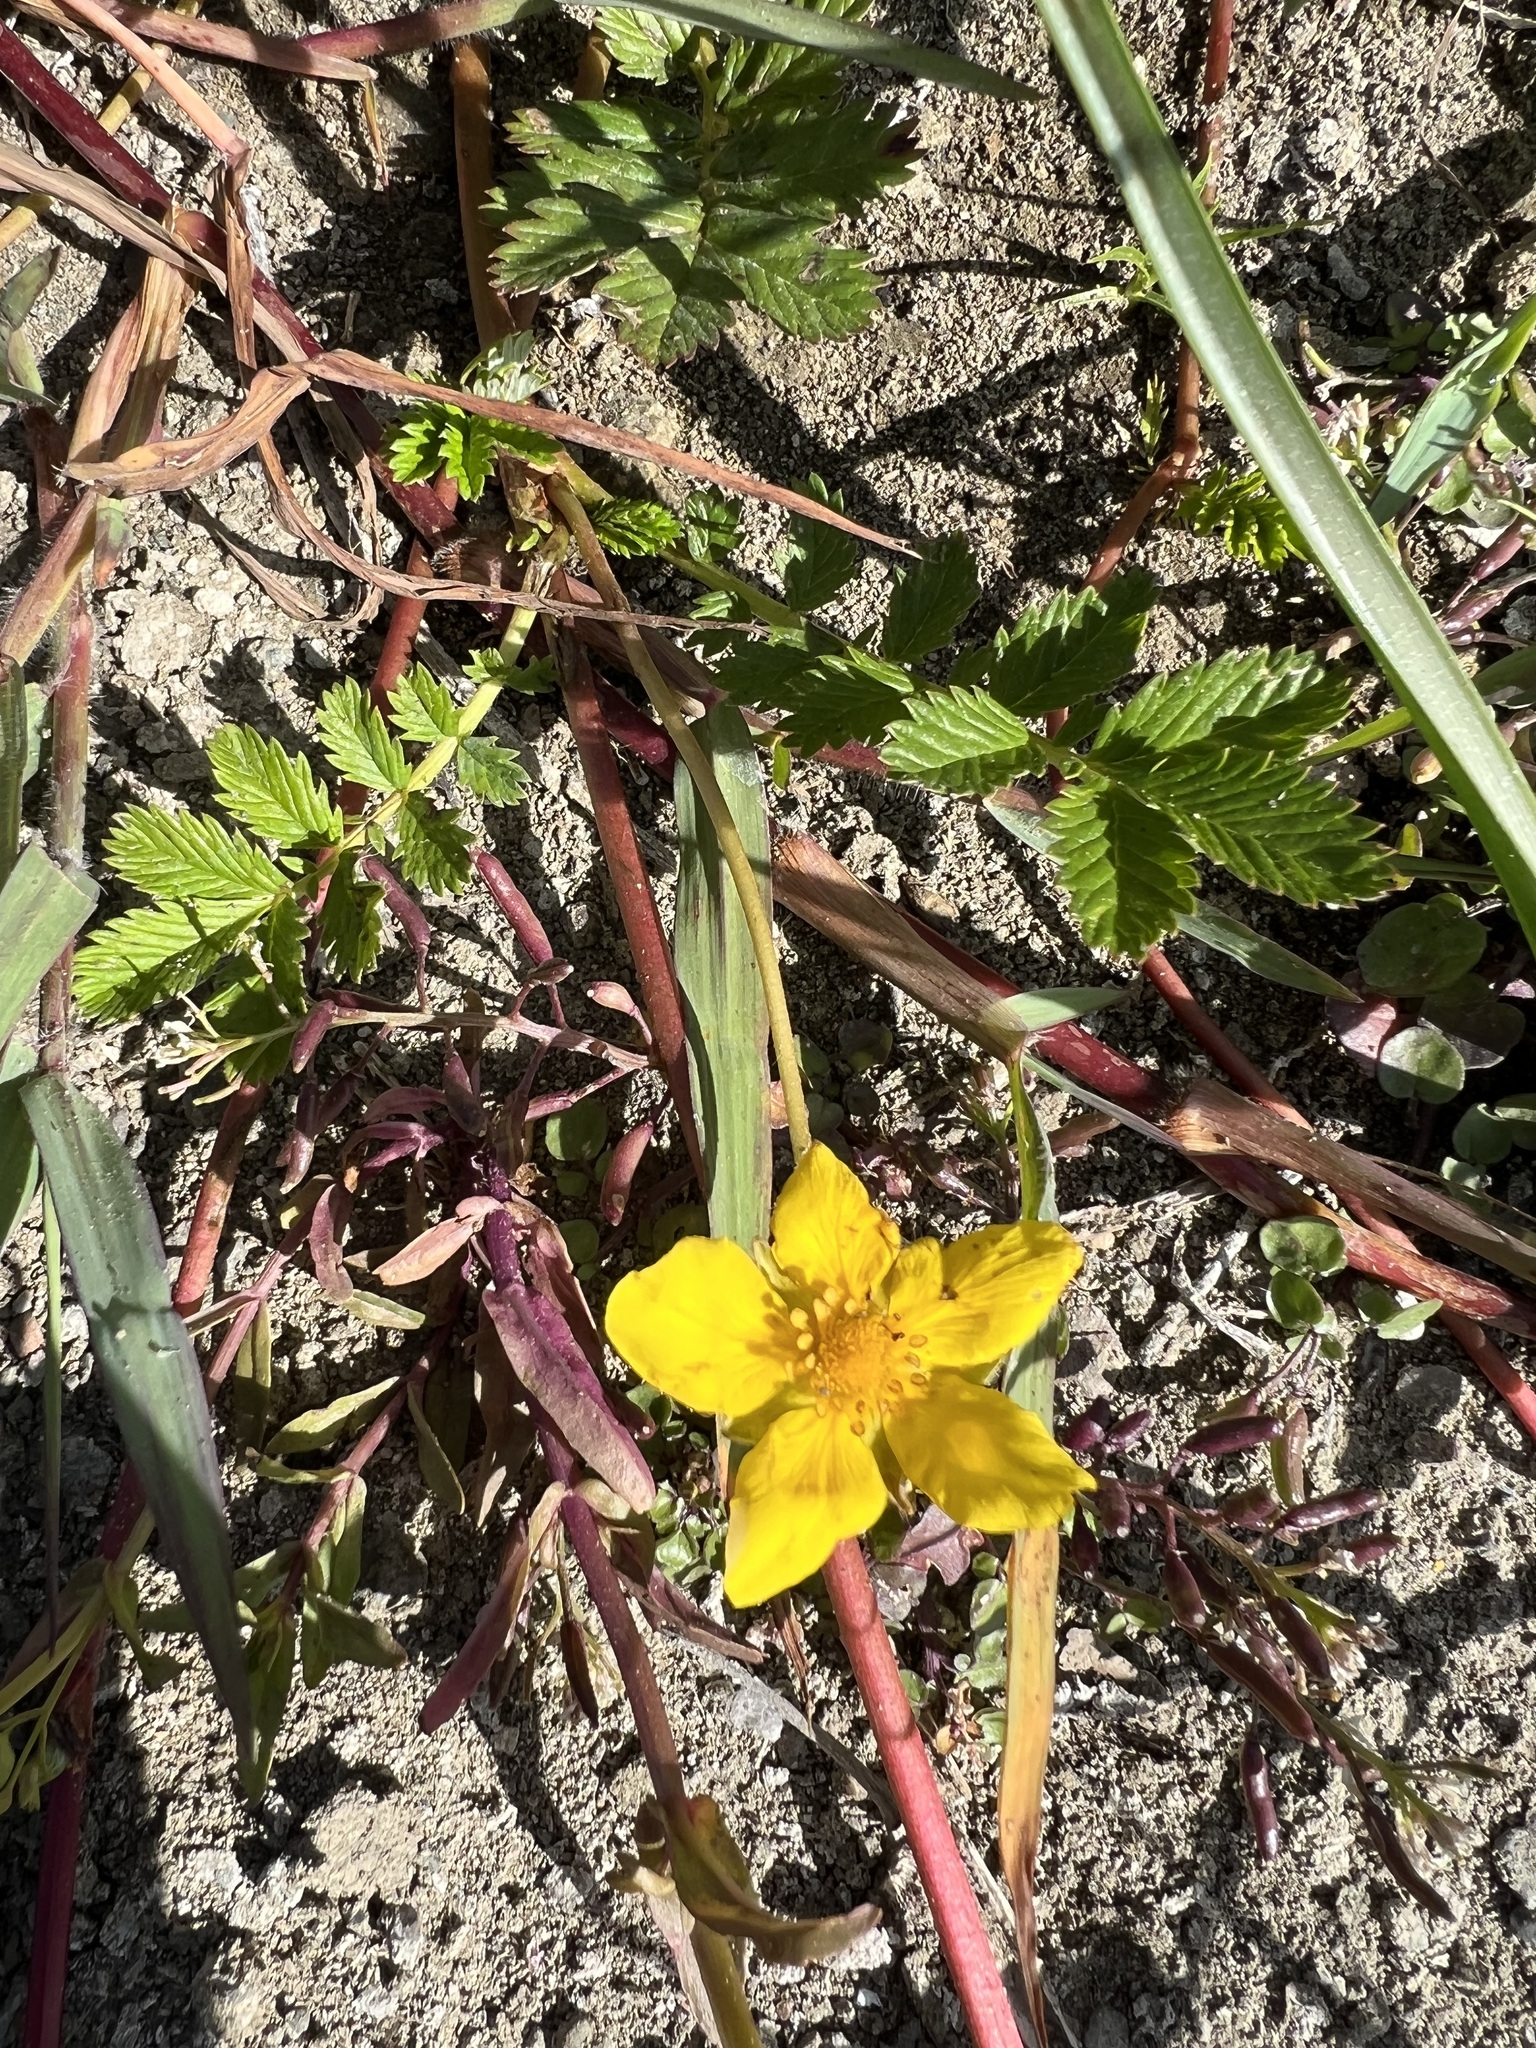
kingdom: Plantae
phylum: Tracheophyta
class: Magnoliopsida
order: Rosales
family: Rosaceae
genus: Argentina
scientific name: Argentina anserina
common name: Common silverweed
